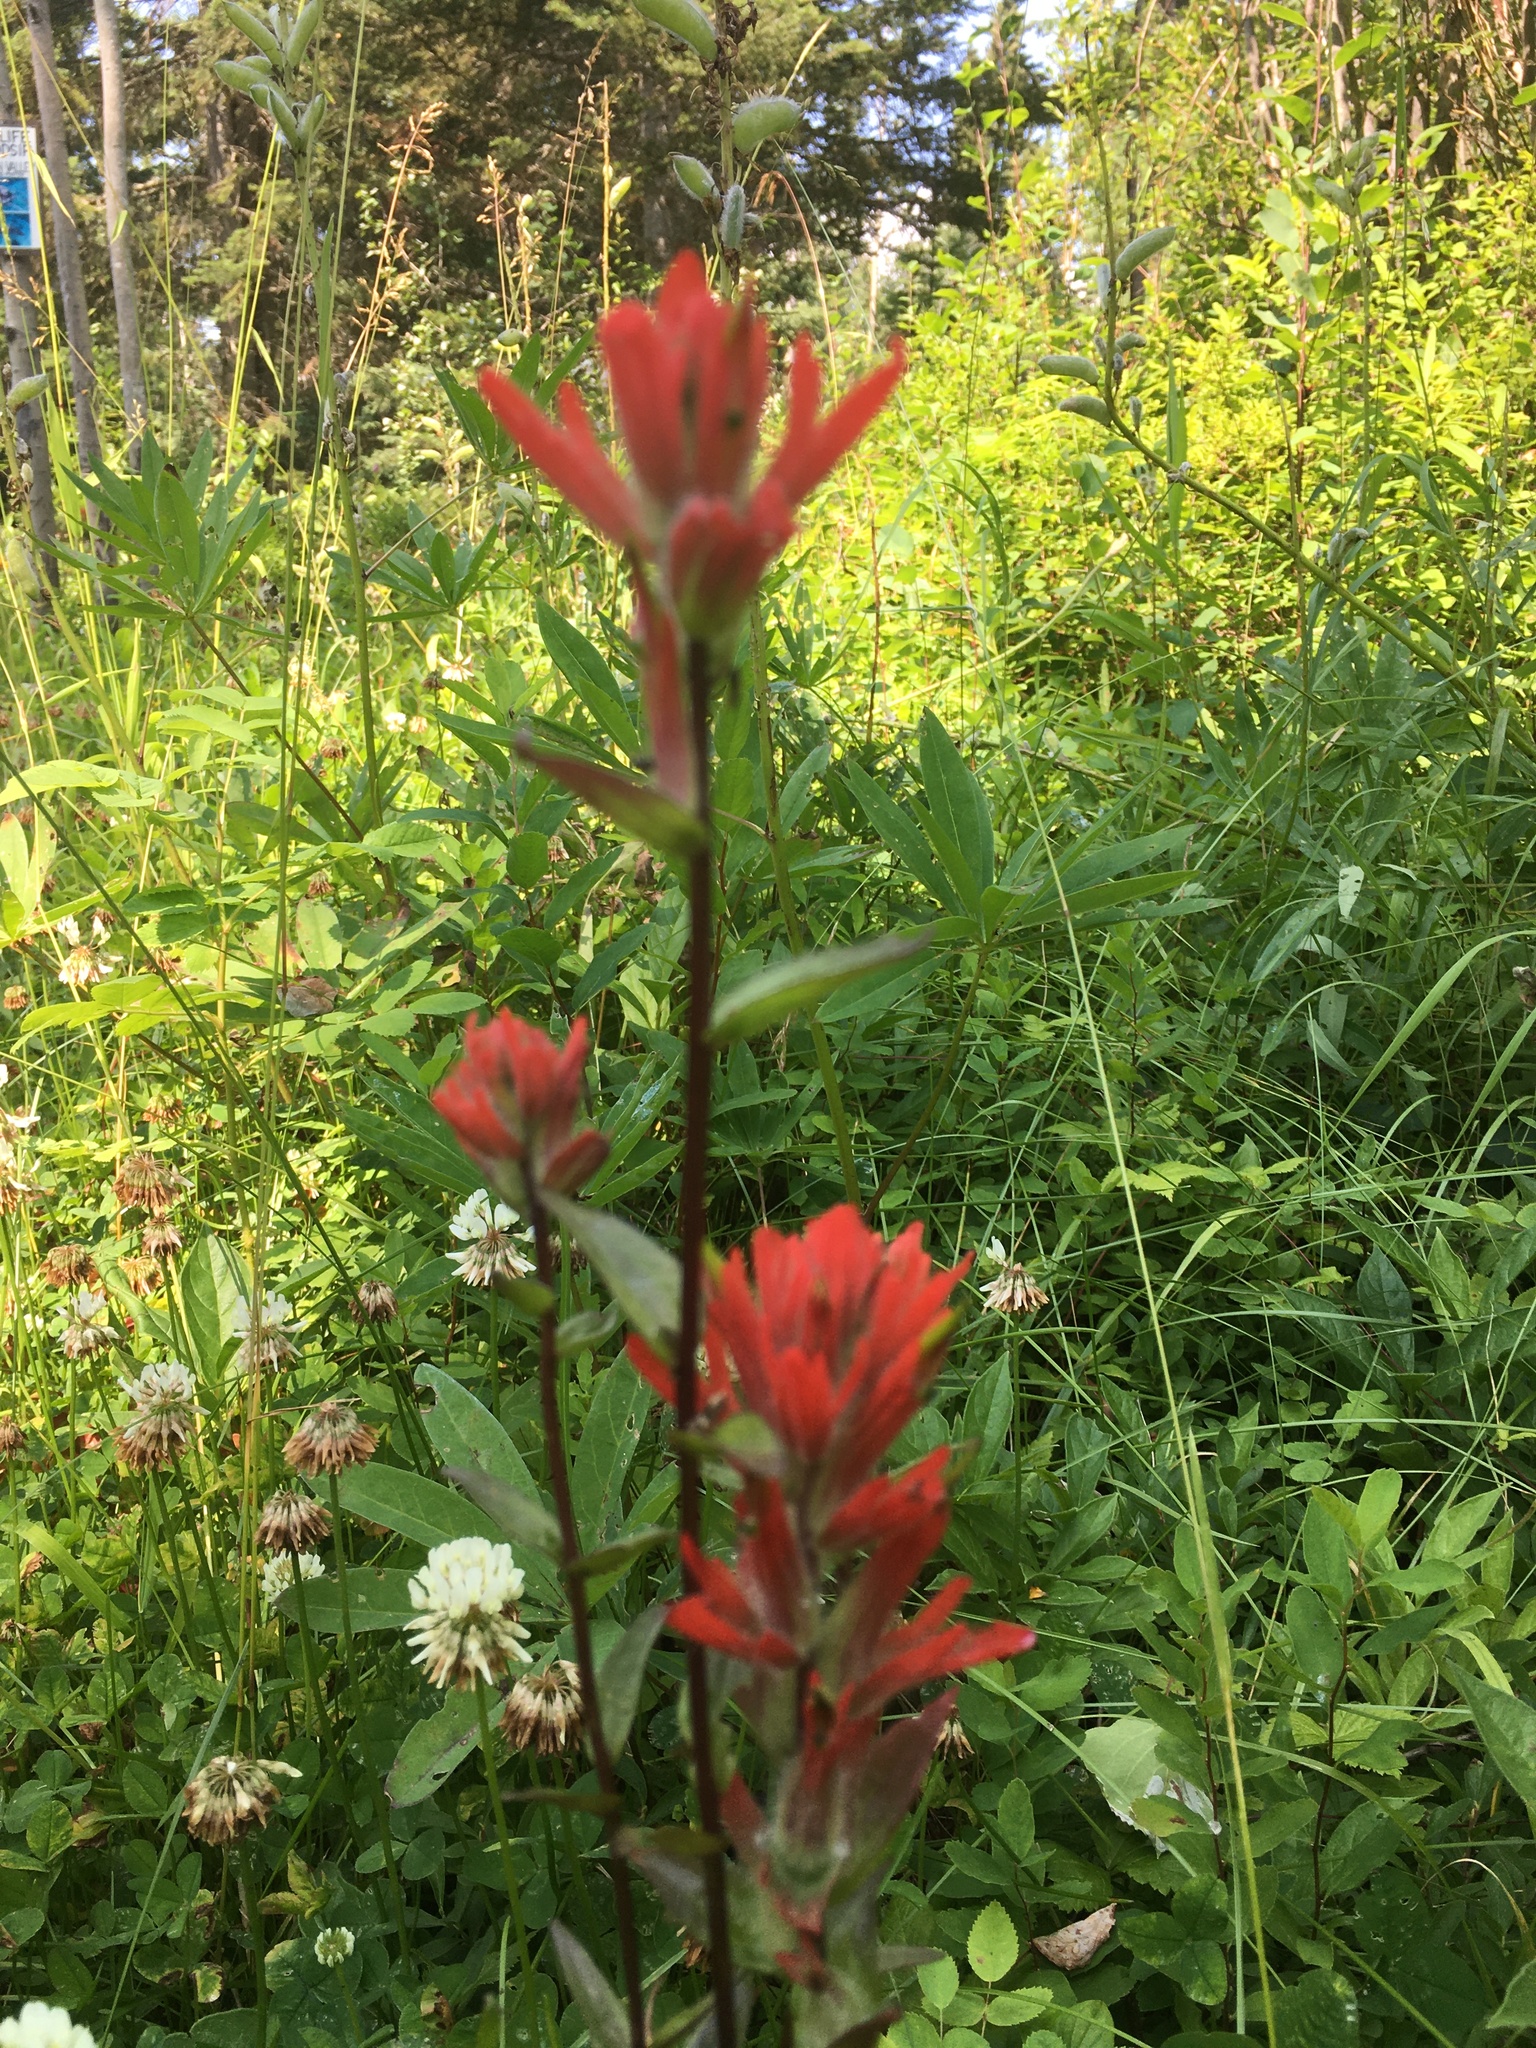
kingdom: Plantae
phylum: Tracheophyta
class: Magnoliopsida
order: Lamiales
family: Orobanchaceae
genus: Castilleja
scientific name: Castilleja miniata
